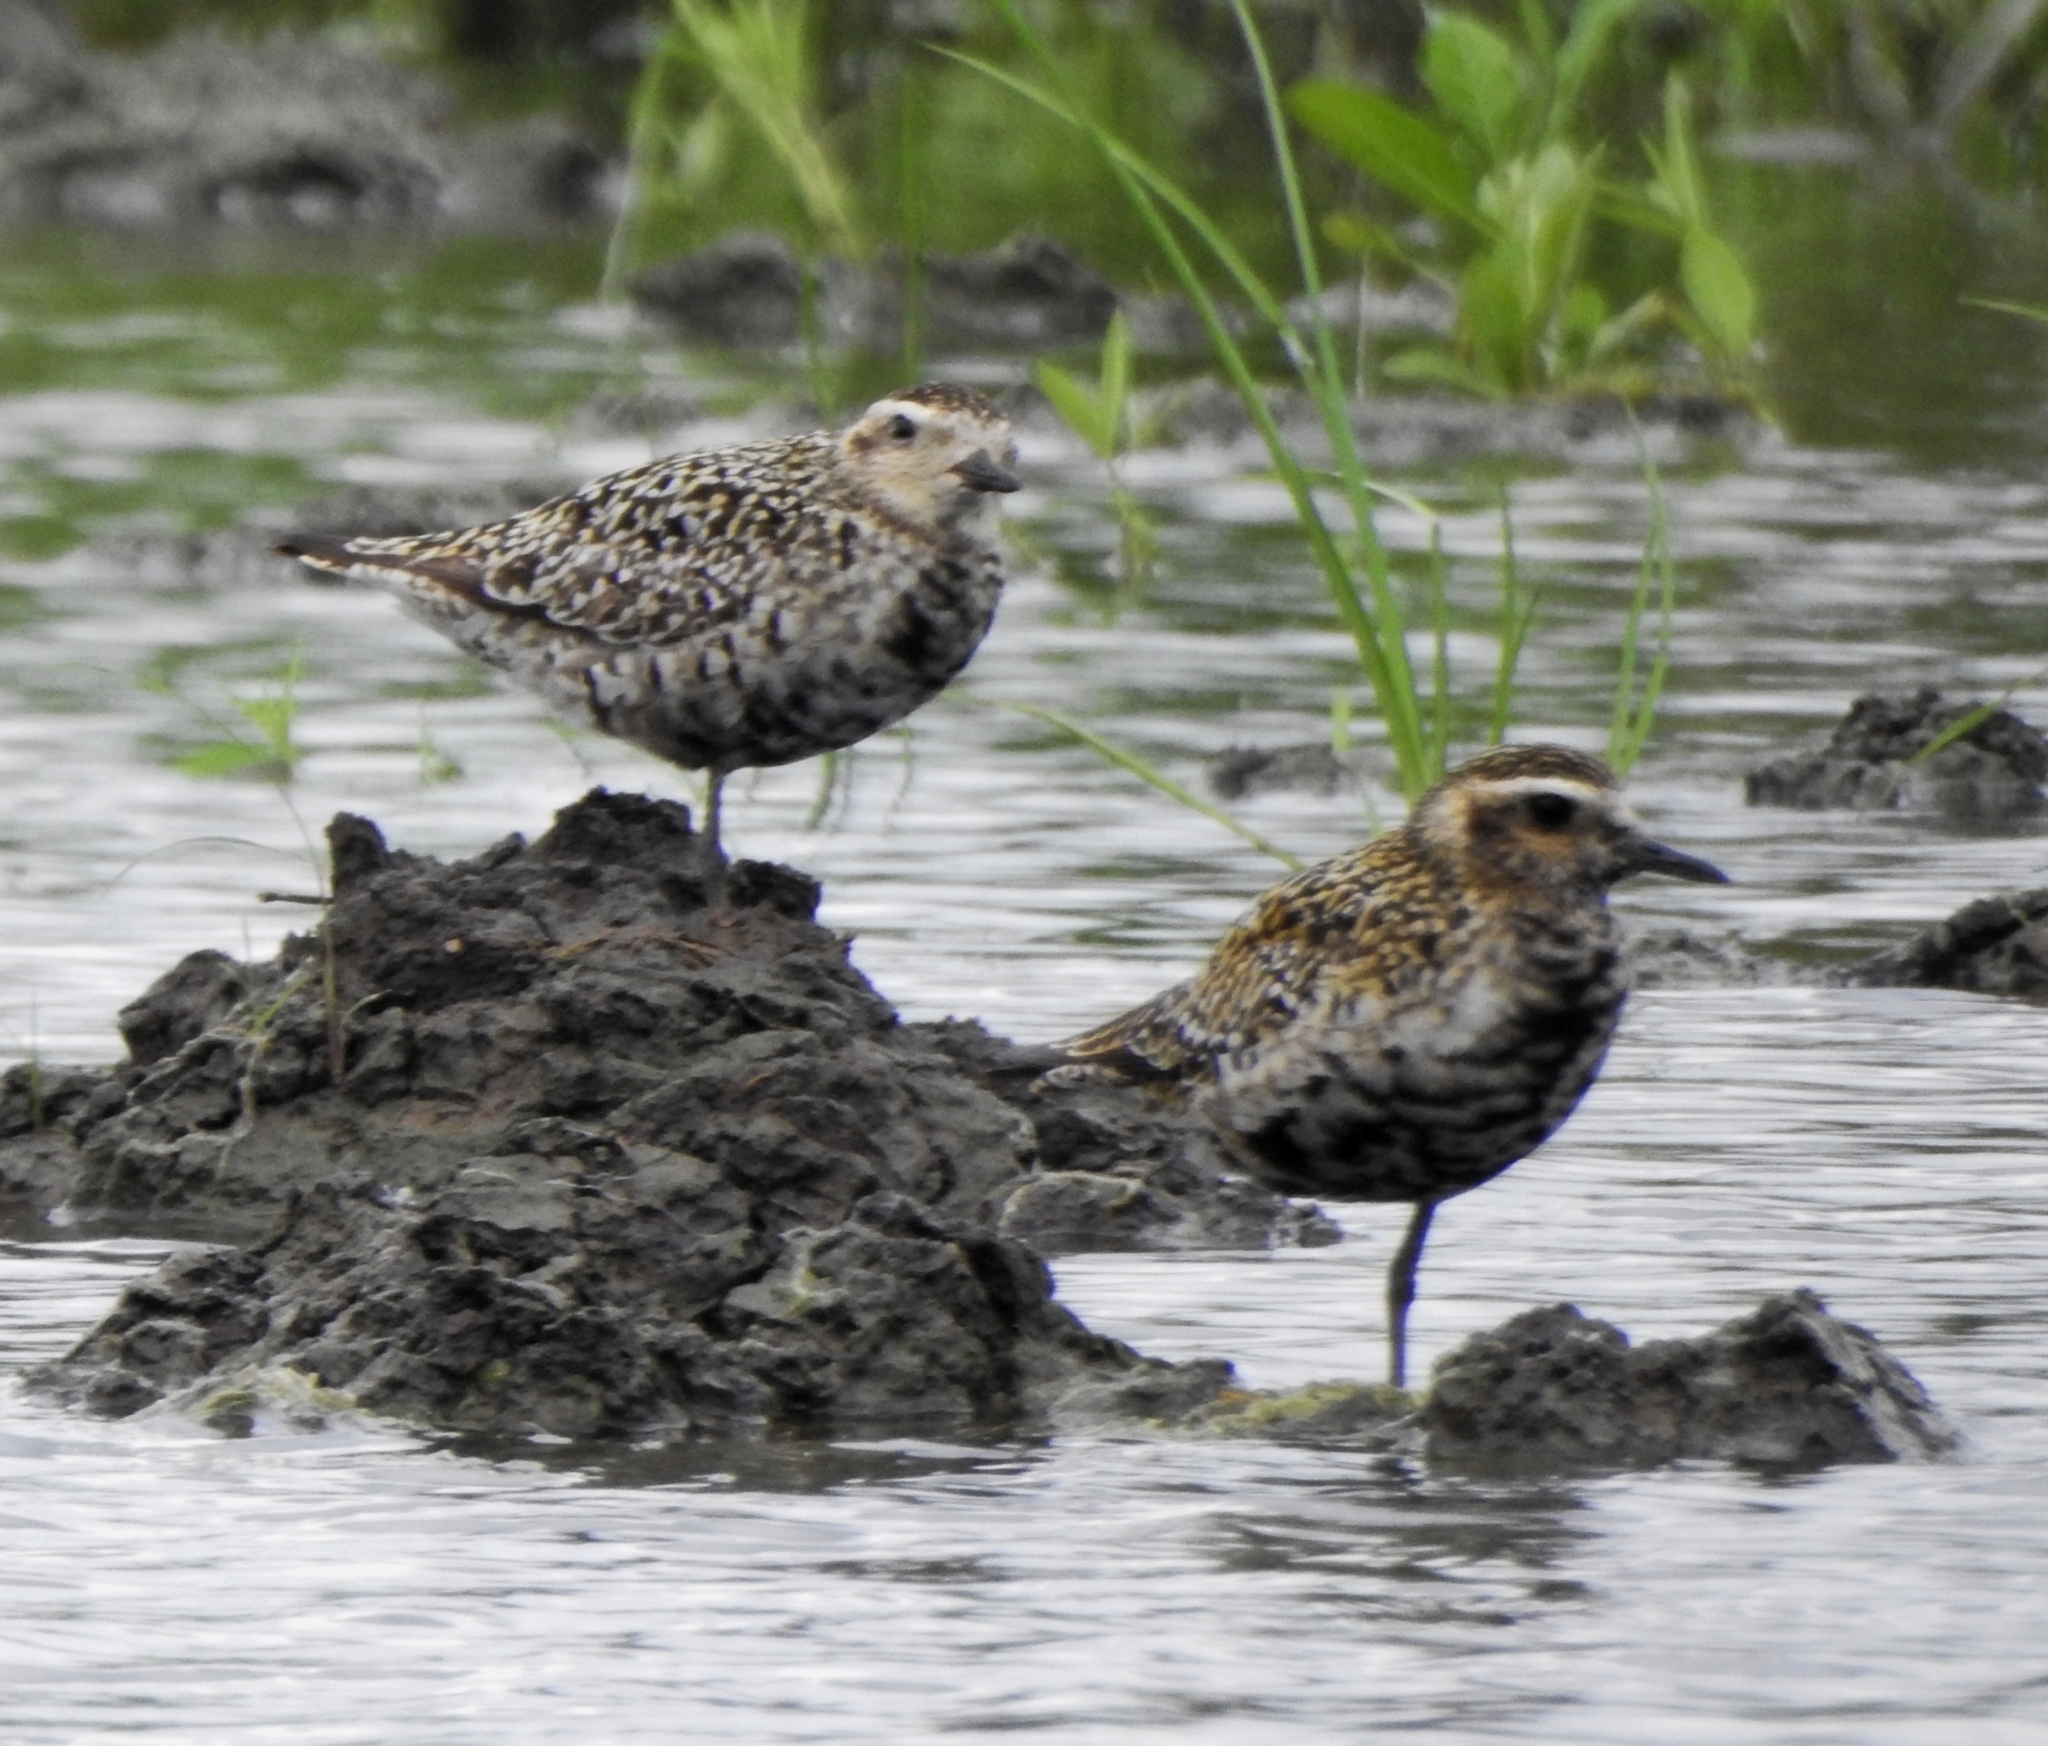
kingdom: Animalia
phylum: Chordata
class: Aves
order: Charadriiformes
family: Charadriidae
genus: Pluvialis
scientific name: Pluvialis fulva
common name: Pacific golden plover
